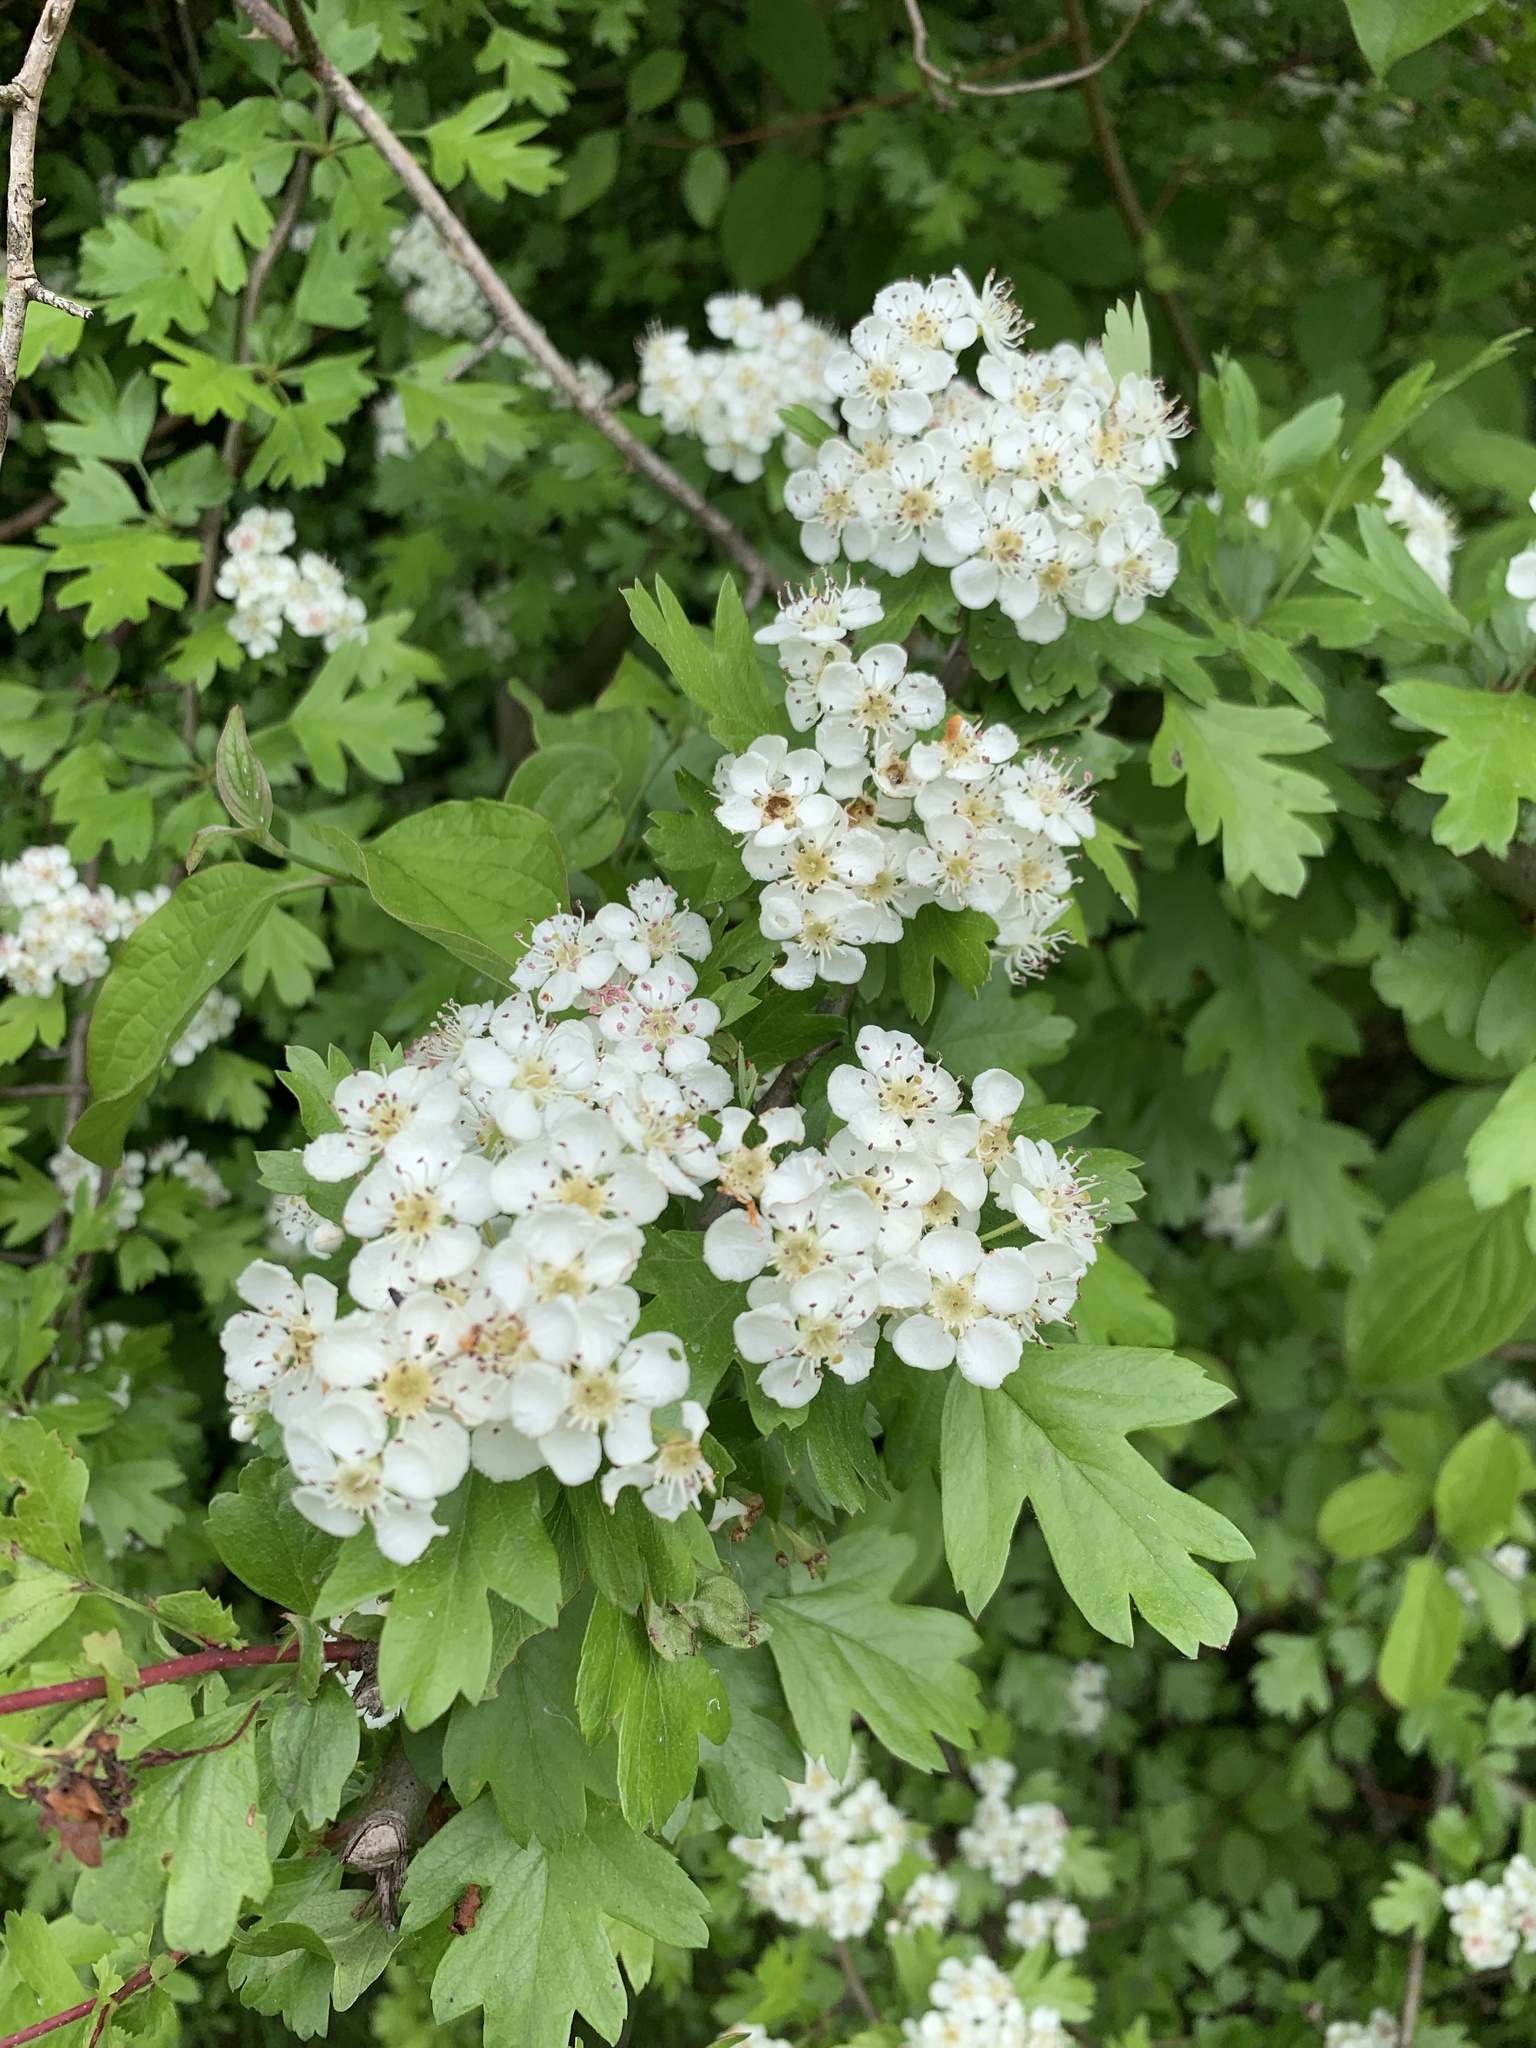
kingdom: Plantae
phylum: Tracheophyta
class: Magnoliopsida
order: Rosales
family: Rosaceae
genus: Crataegus
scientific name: Crataegus monogyna
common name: Hawthorn
